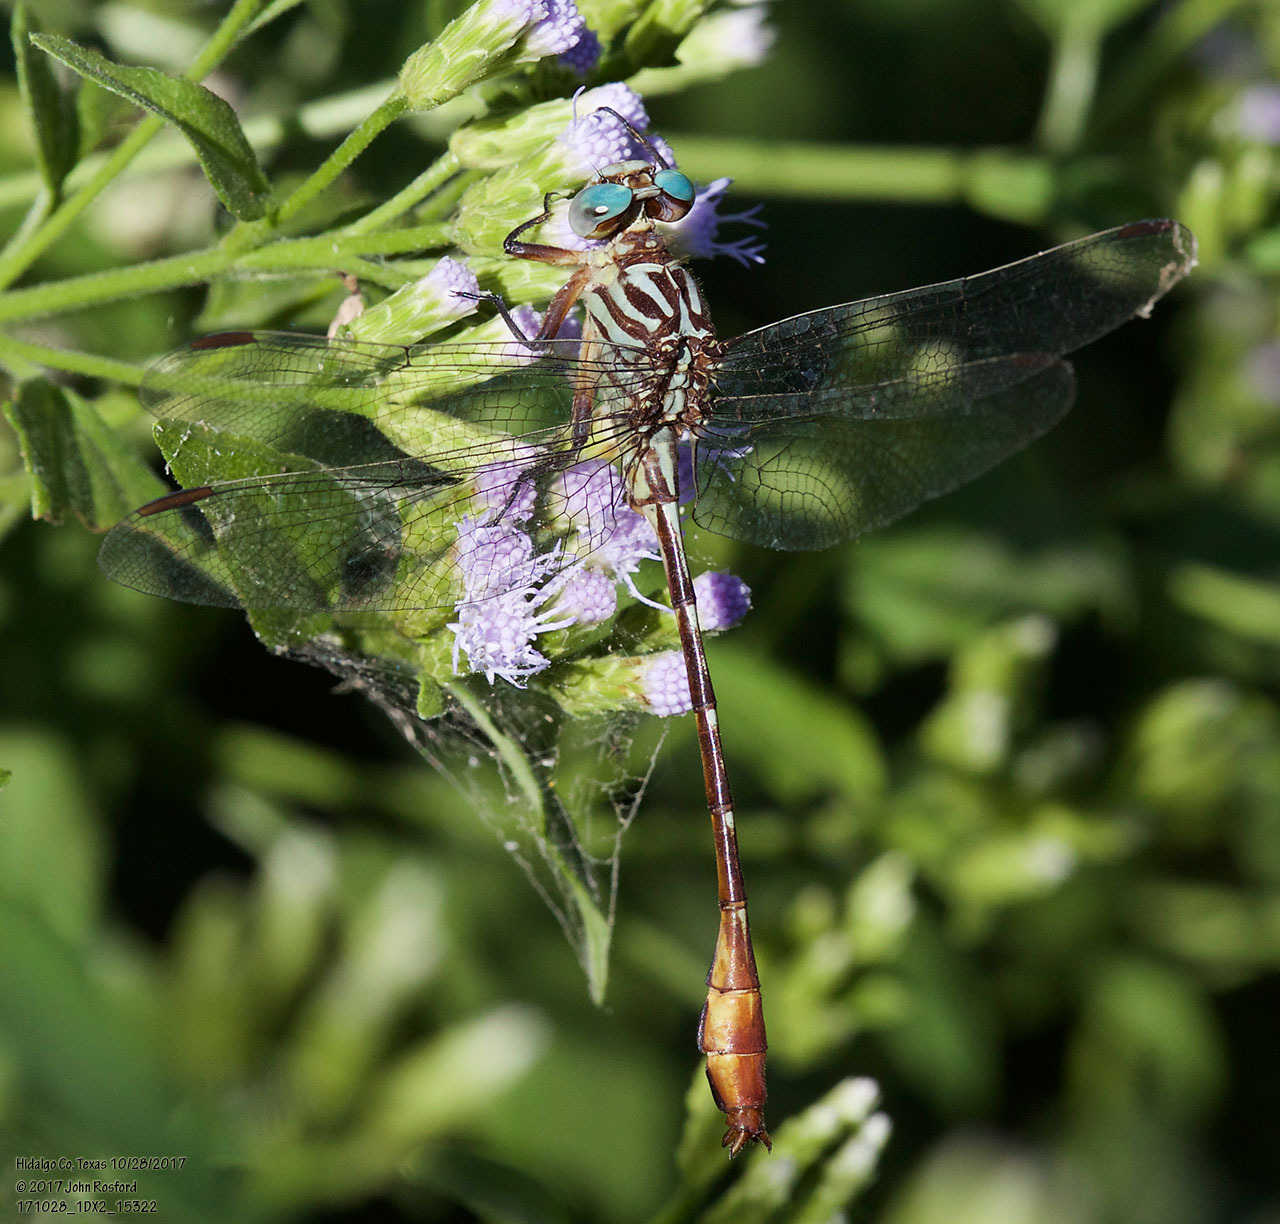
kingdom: Animalia
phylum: Arthropoda
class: Insecta
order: Odonata
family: Gomphidae
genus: Stylurus
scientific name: Stylurus plagiatus
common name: Russet-tipped clubtail
